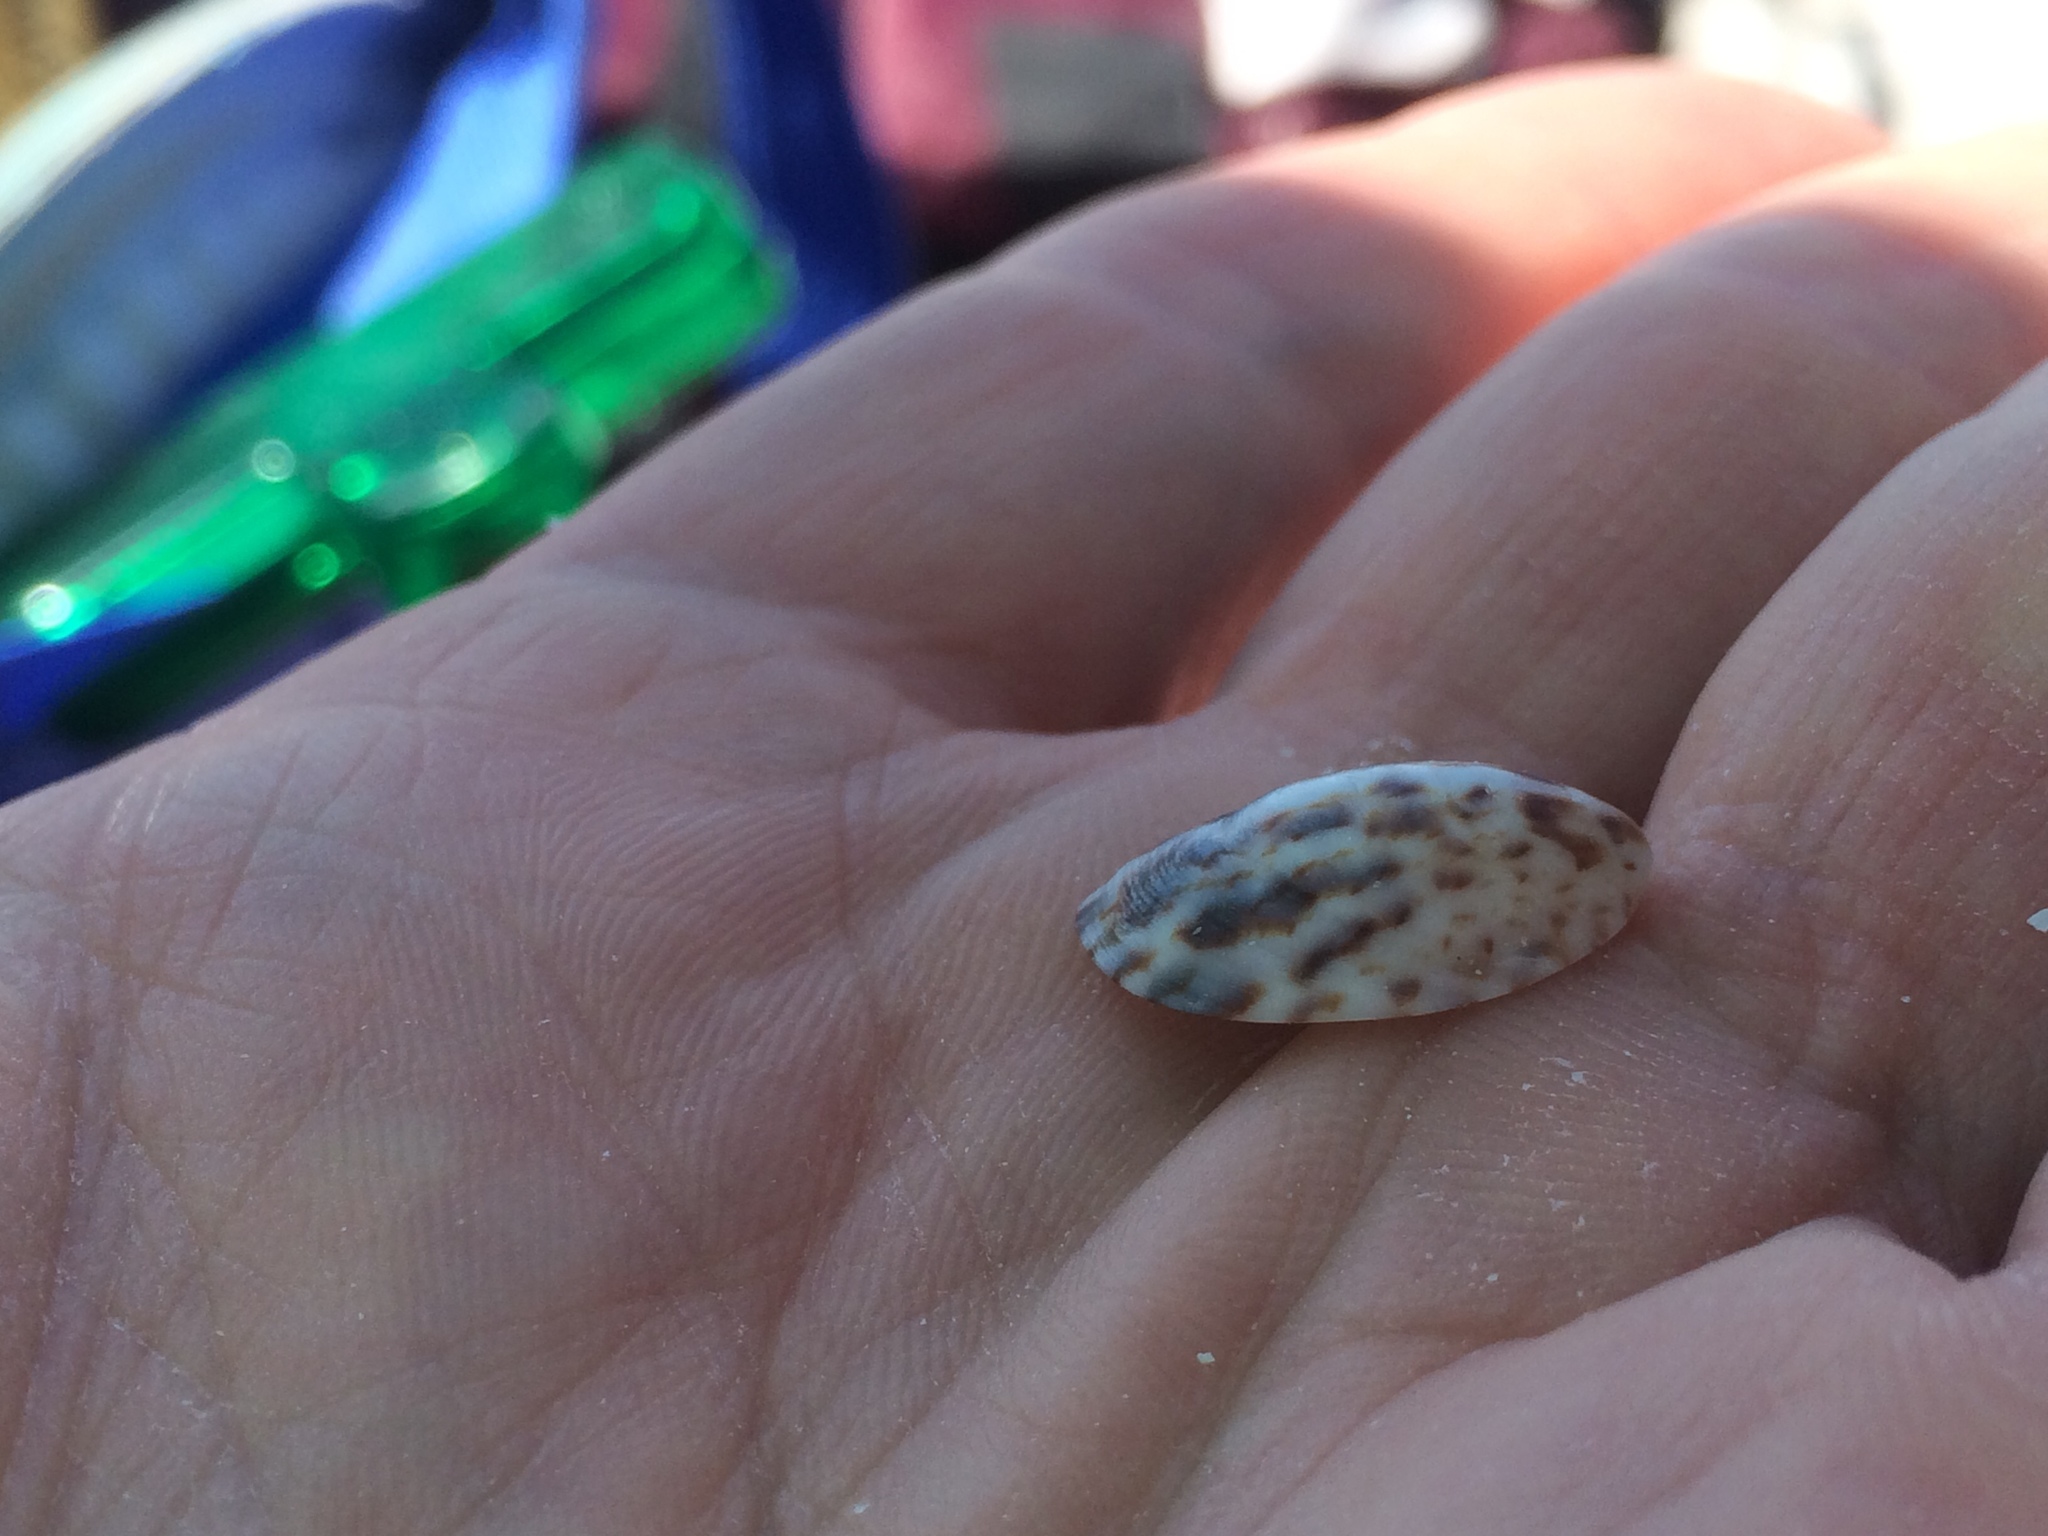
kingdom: Animalia
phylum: Mollusca
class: Gastropoda
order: Littorinimorpha
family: Calyptraeidae
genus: Crepidula
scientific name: Crepidula maculosa
